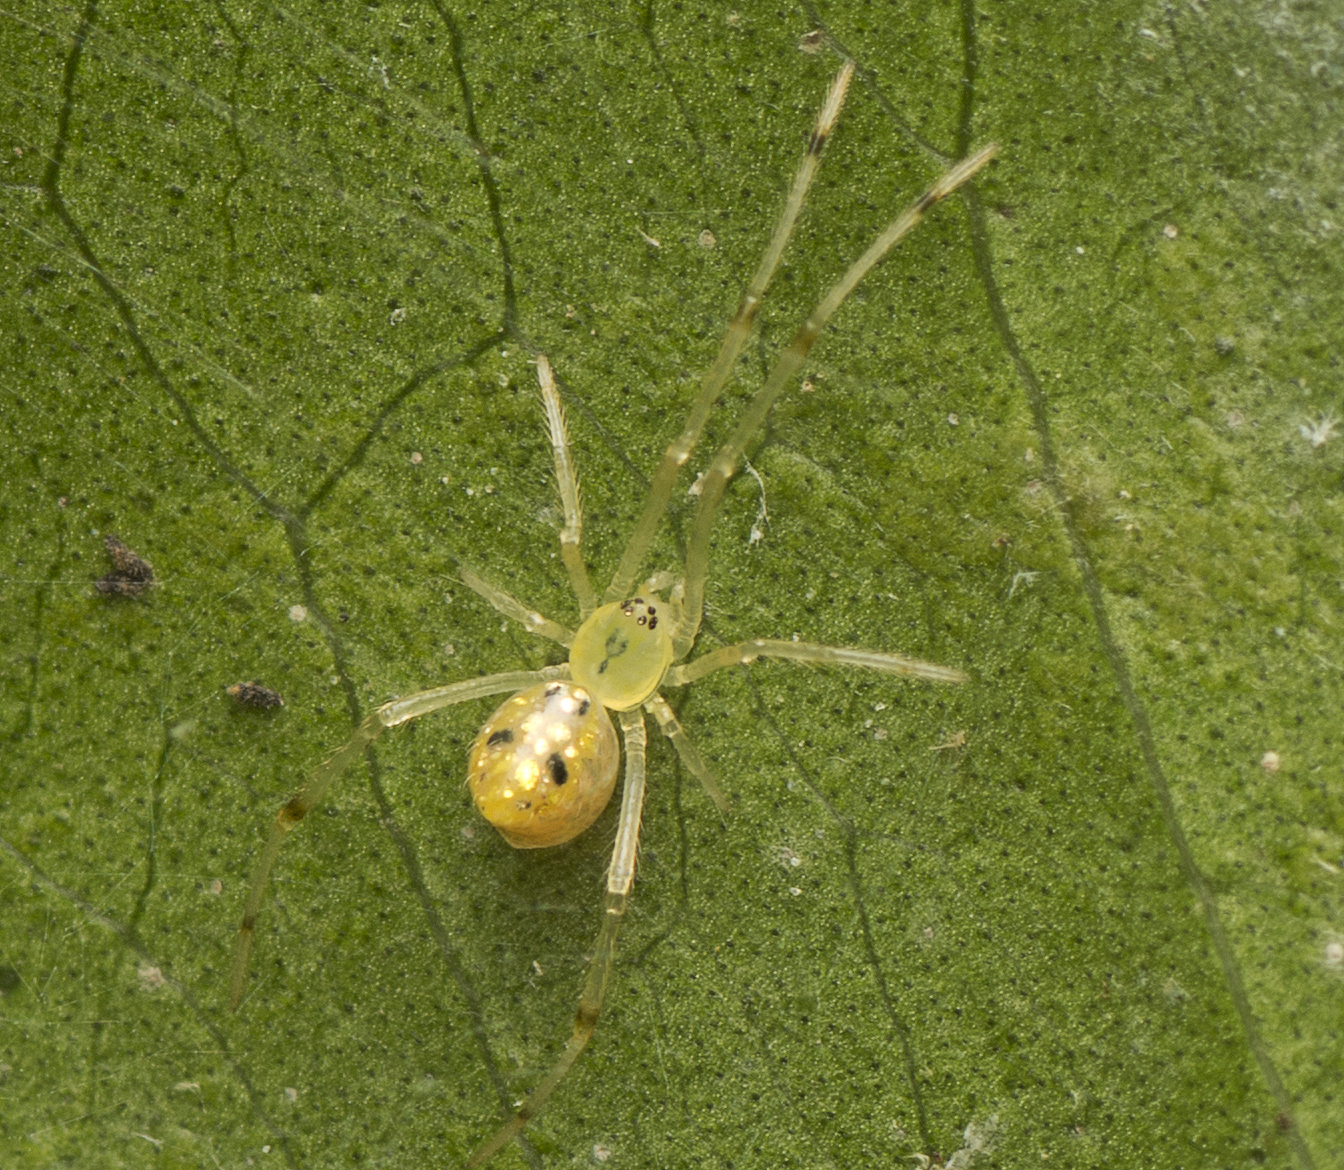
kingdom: Animalia
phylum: Arthropoda
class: Arachnida
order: Araneae
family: Theridiidae
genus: Thwaitesia
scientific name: Thwaitesia nigronodosa
